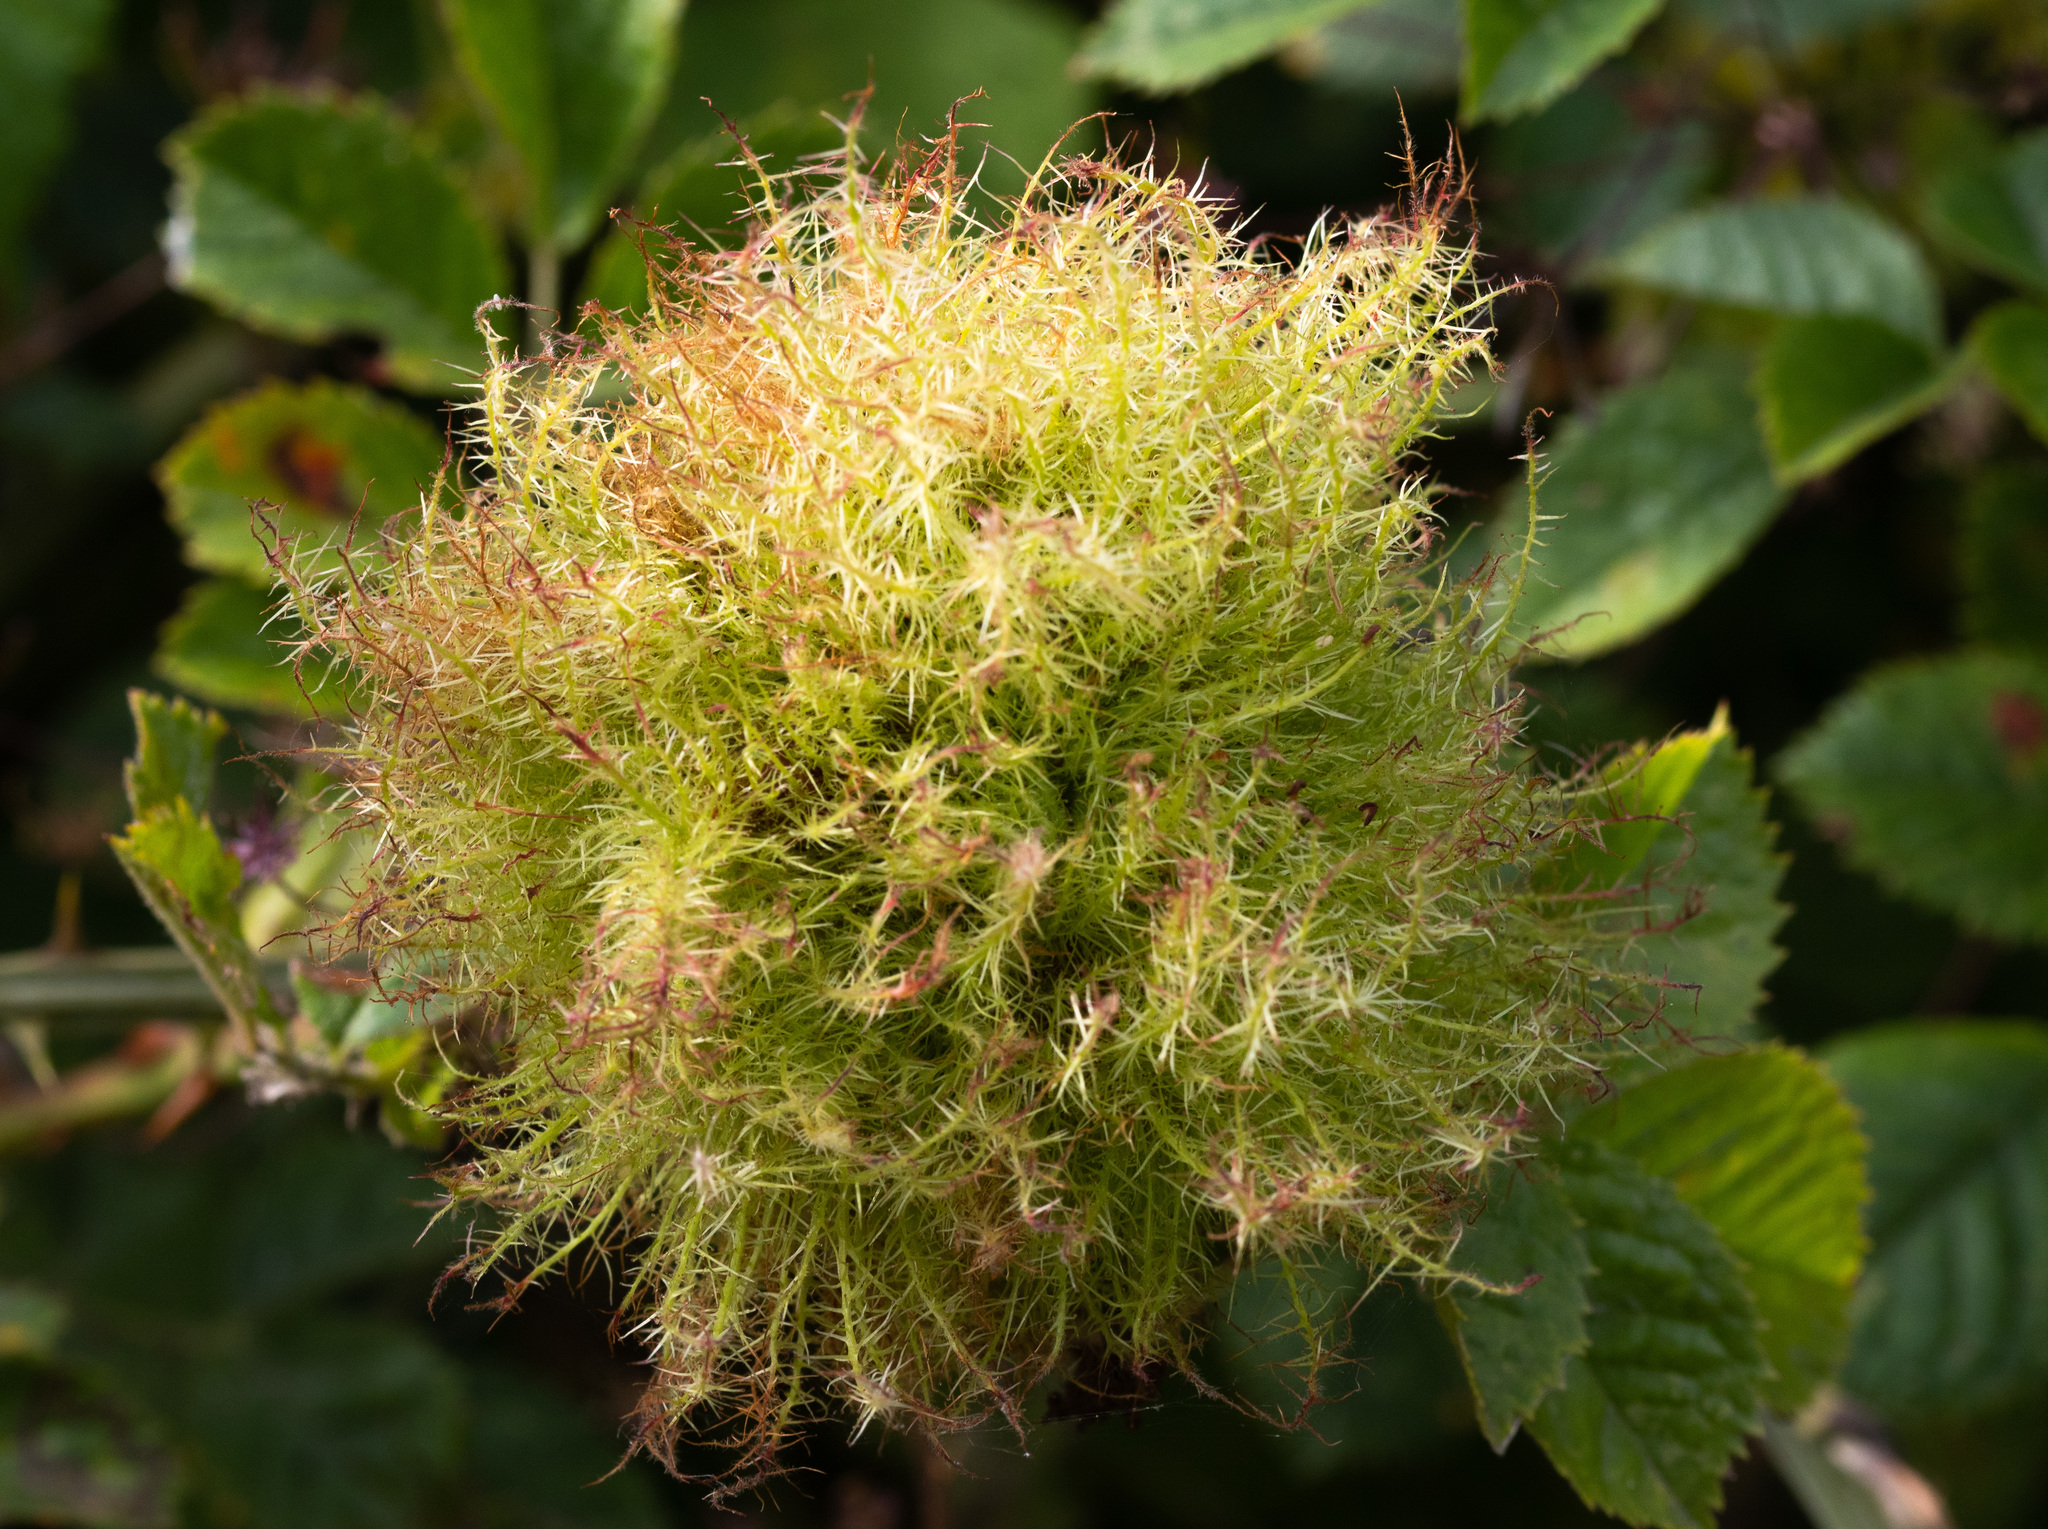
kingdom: Animalia
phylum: Arthropoda
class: Insecta
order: Hymenoptera
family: Cynipidae
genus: Diplolepis
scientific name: Diplolepis rosae
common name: Bedeguar gall
